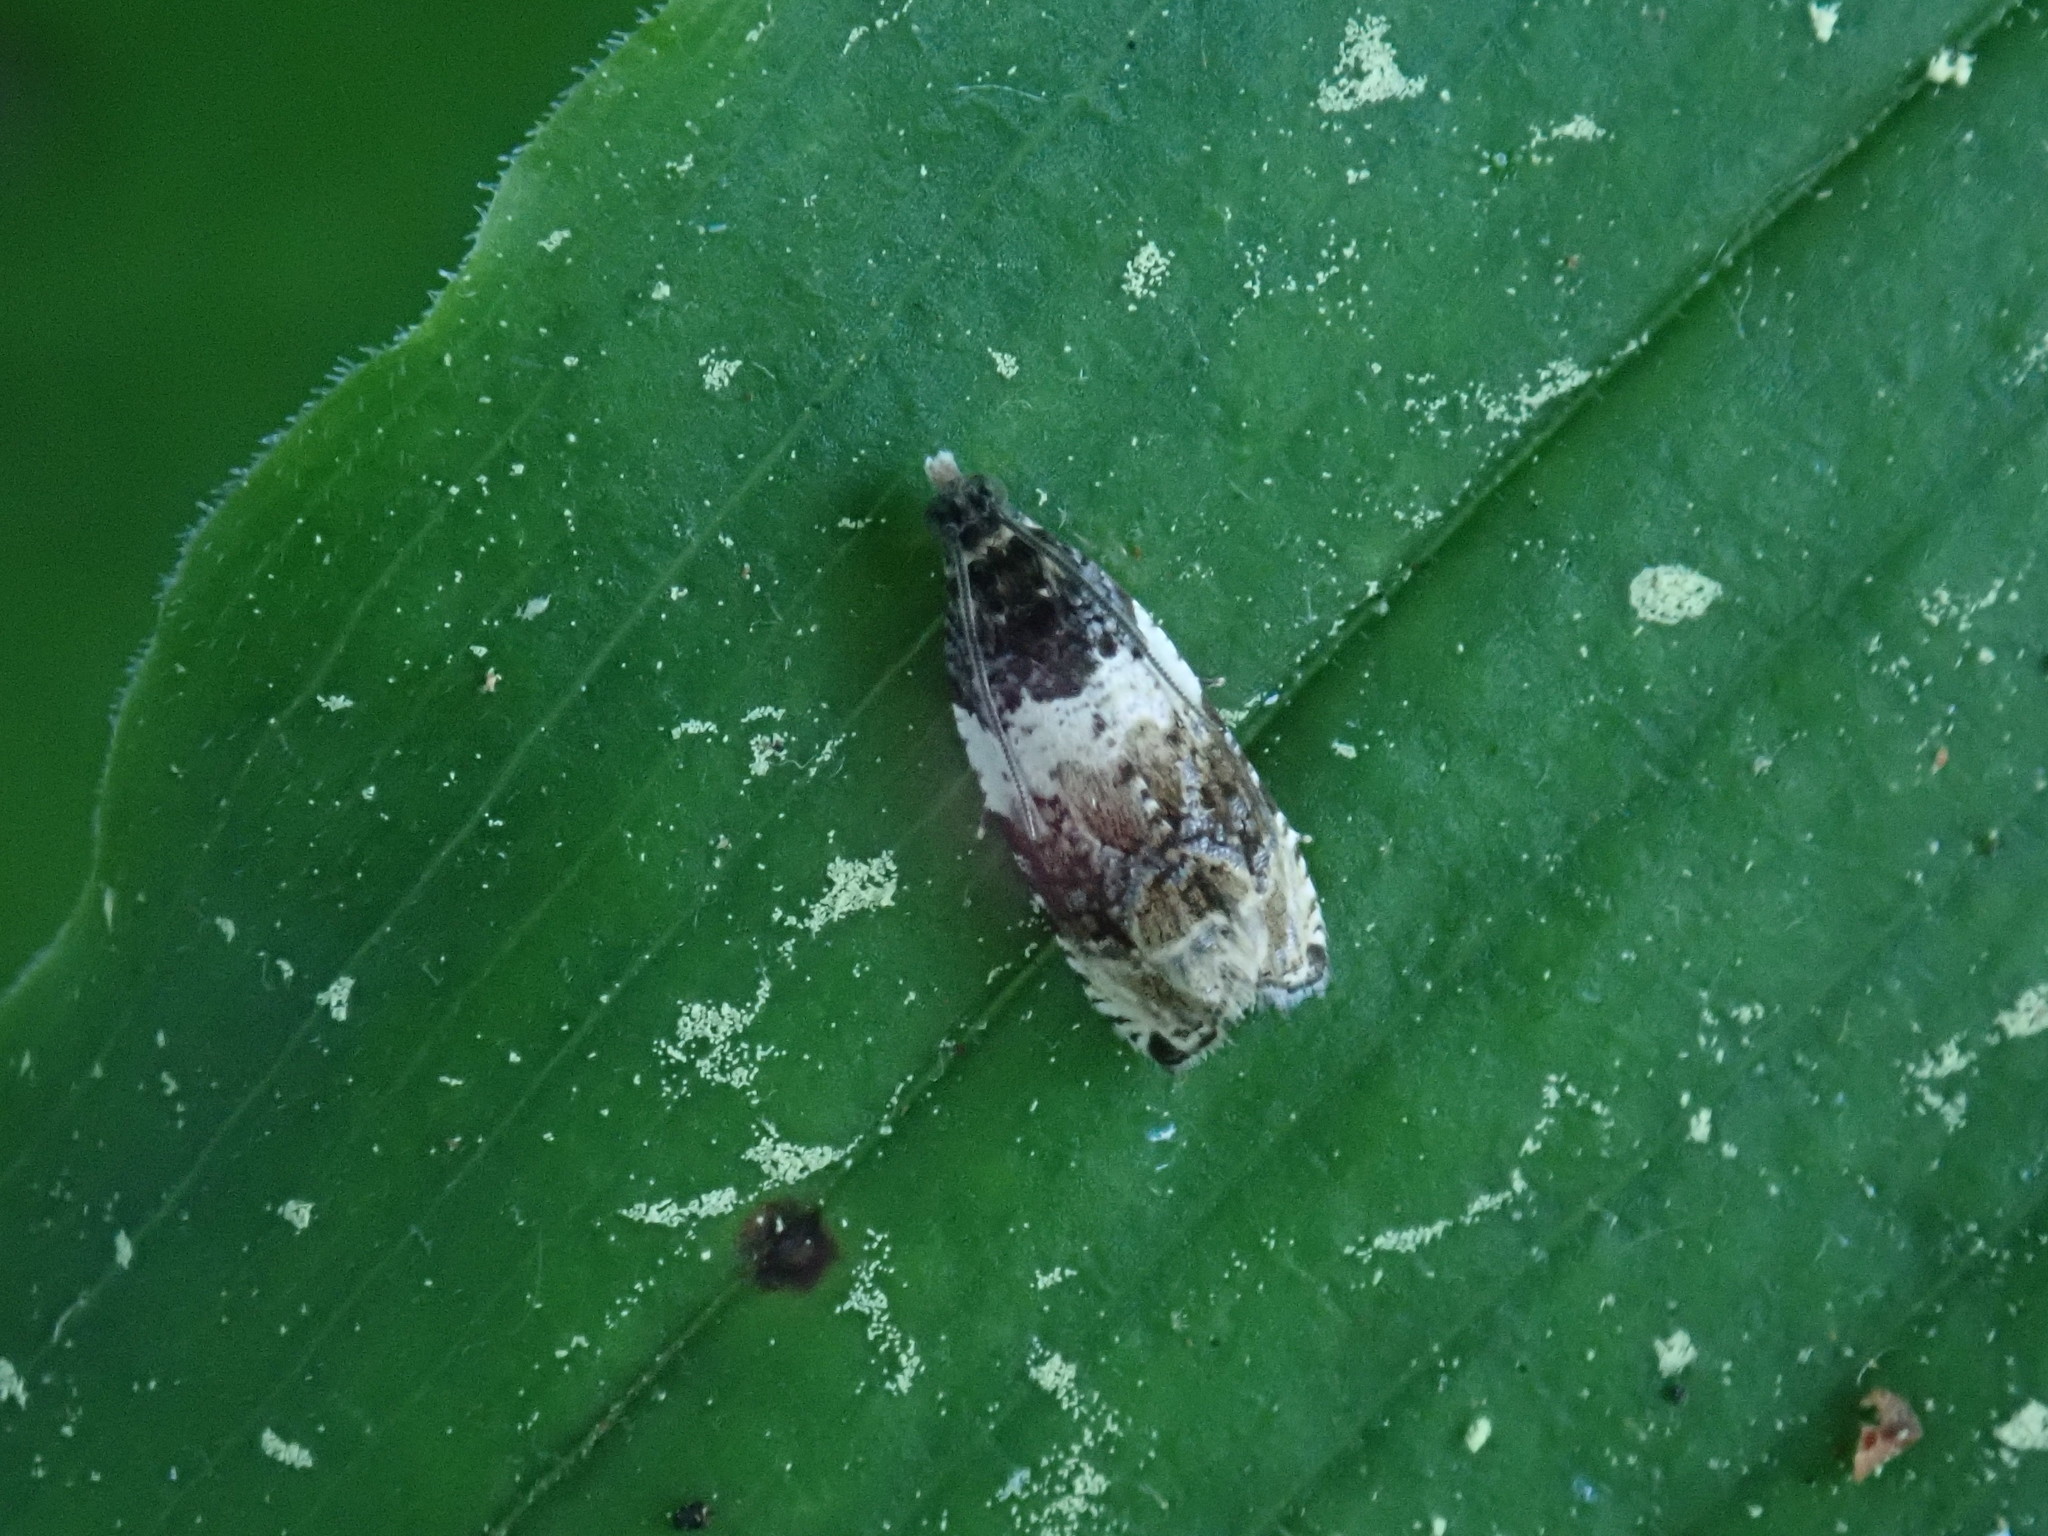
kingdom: Animalia
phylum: Arthropoda
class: Insecta
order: Lepidoptera
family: Tortricidae
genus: Olethreutes
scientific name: Olethreutes fasciatana
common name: Banded olethreutes moth
